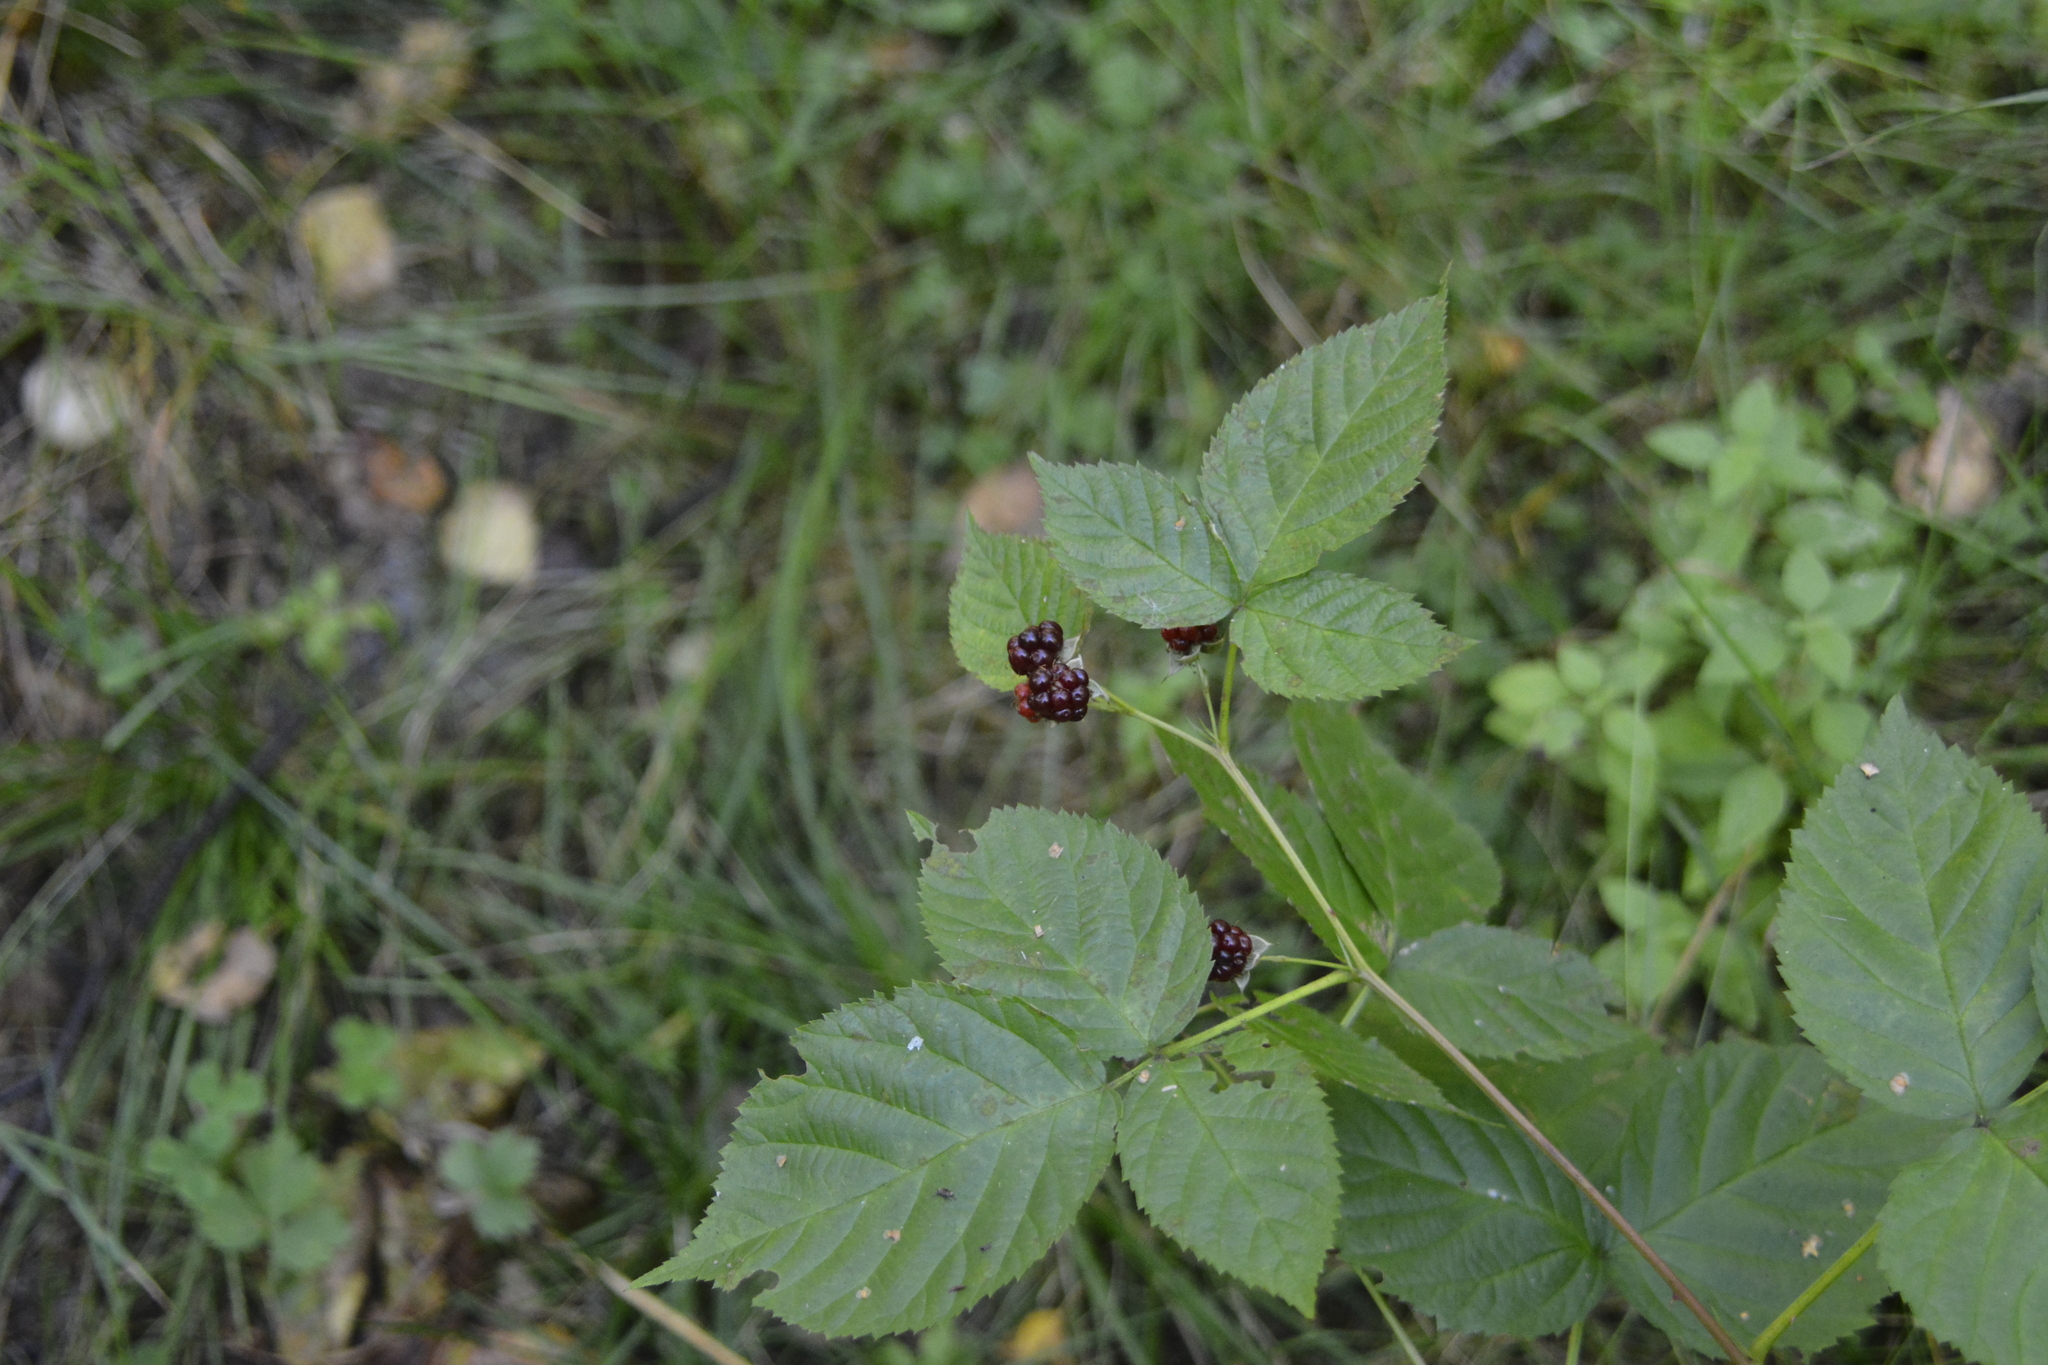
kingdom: Plantae
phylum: Tracheophyta
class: Magnoliopsida
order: Rosales
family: Rosaceae
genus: Rubus
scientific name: Rubus polonicus
